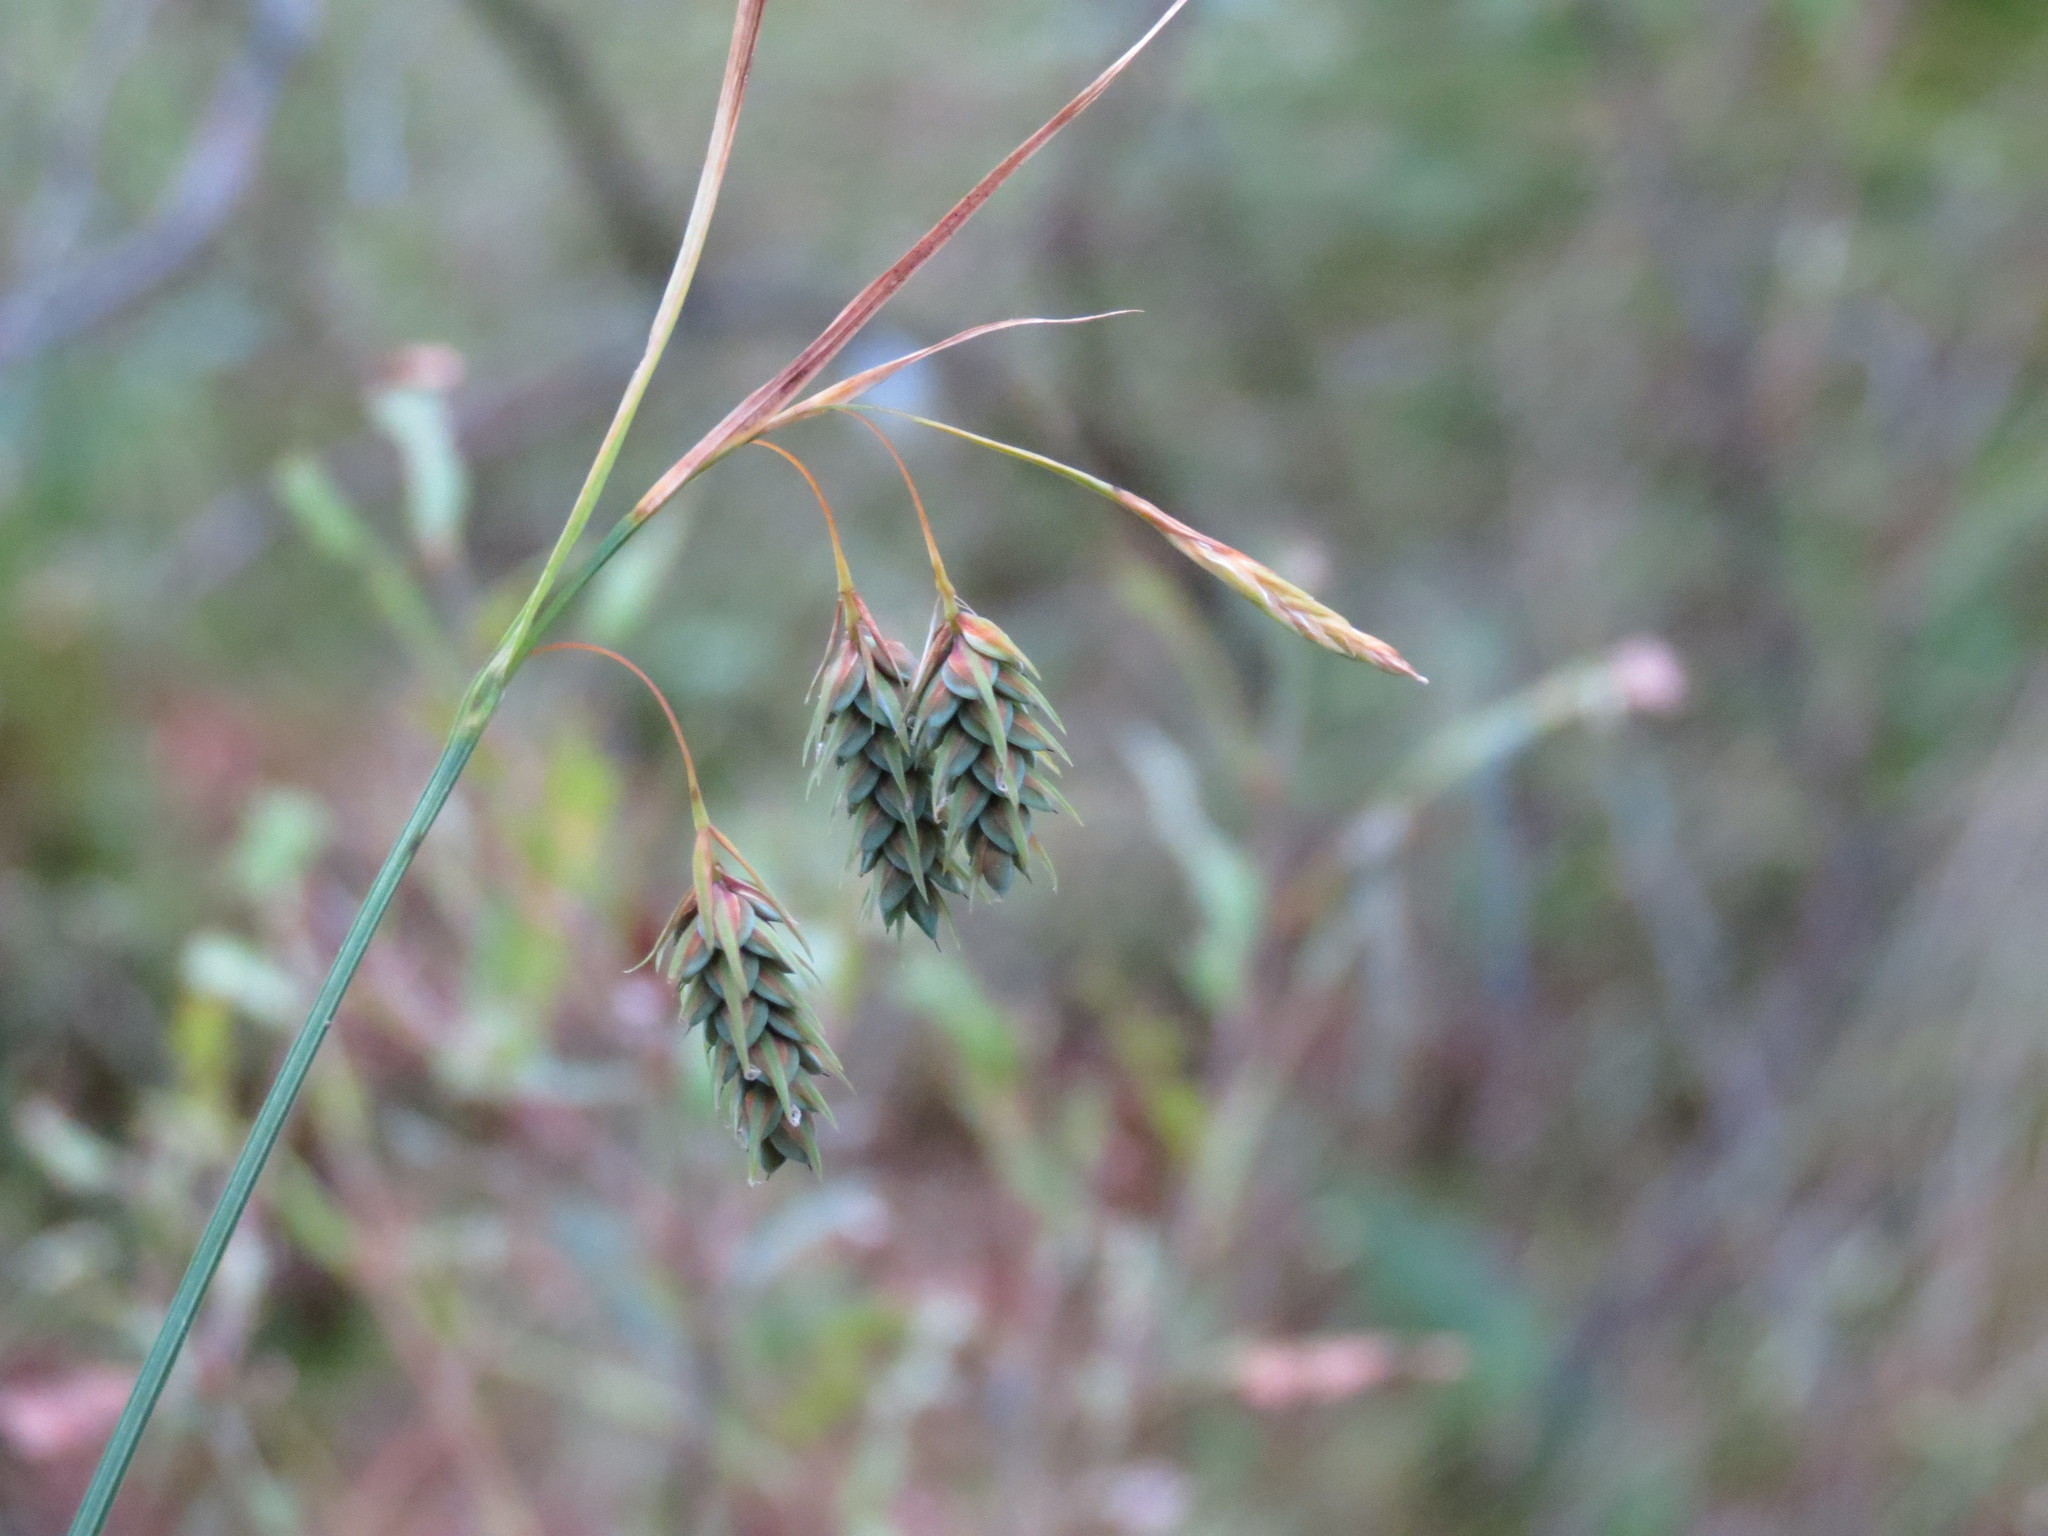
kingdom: Plantae
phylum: Tracheophyta
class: Liliopsida
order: Poales
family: Cyperaceae
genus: Carex
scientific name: Carex magellanica
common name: Bog sedge
